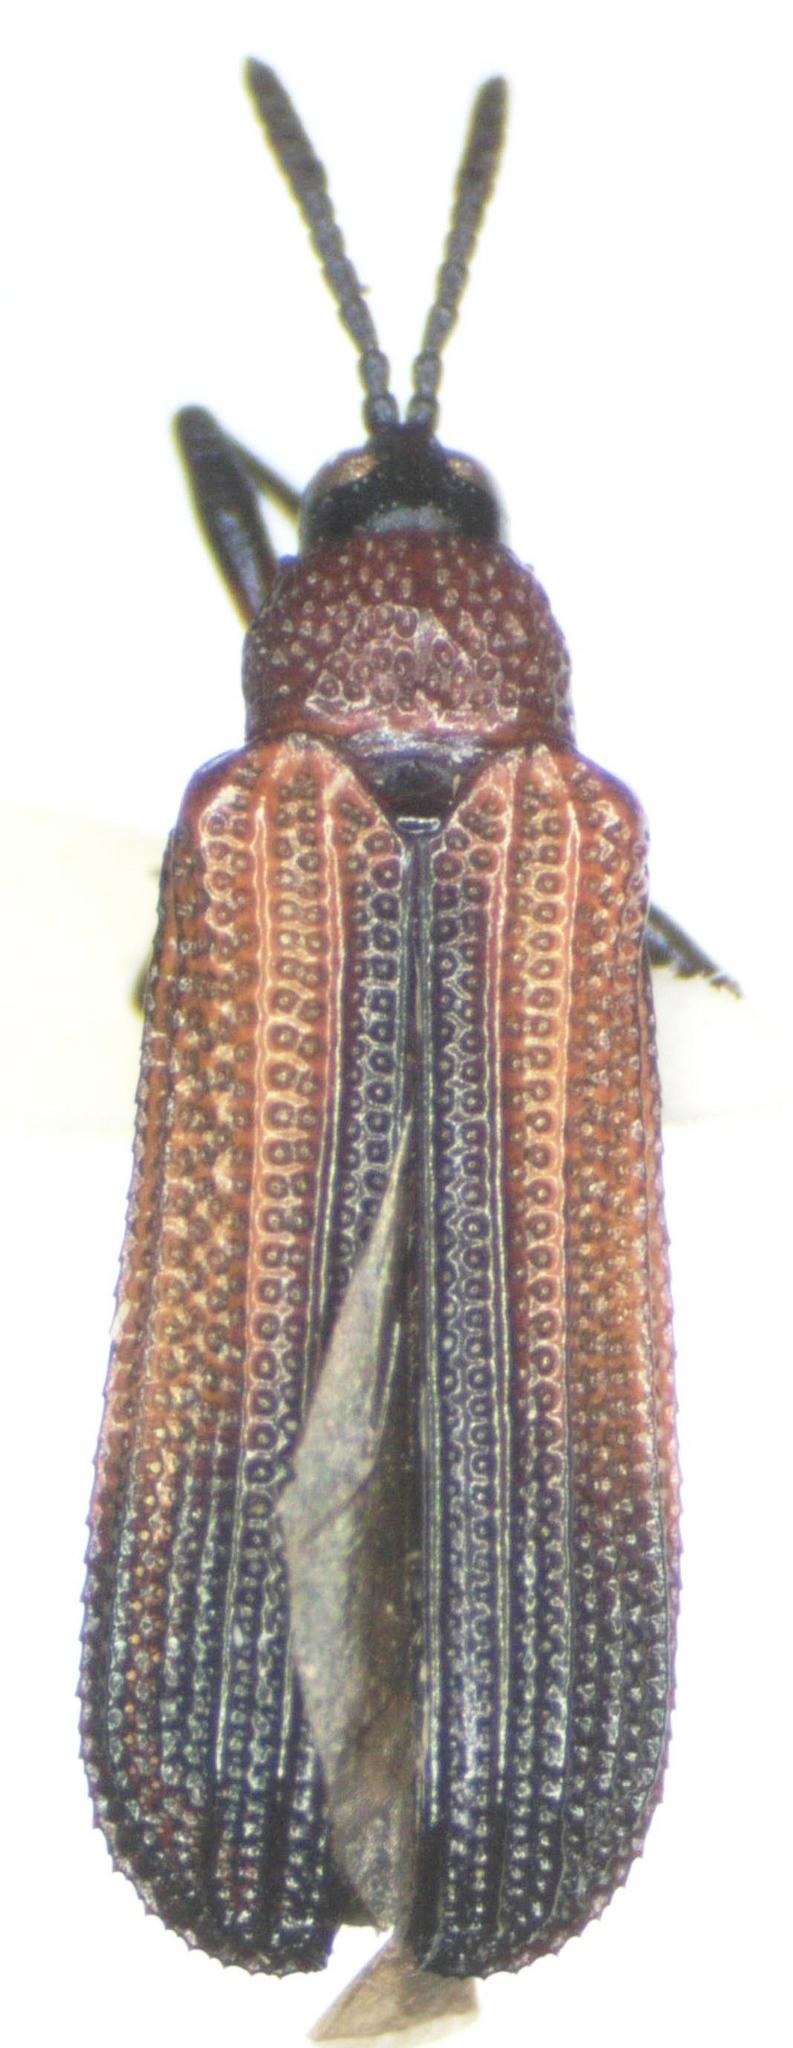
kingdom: Animalia
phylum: Arthropoda
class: Insecta
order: Coleoptera
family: Chrysomelidae
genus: Chalepus
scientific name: Chalepus similatus
